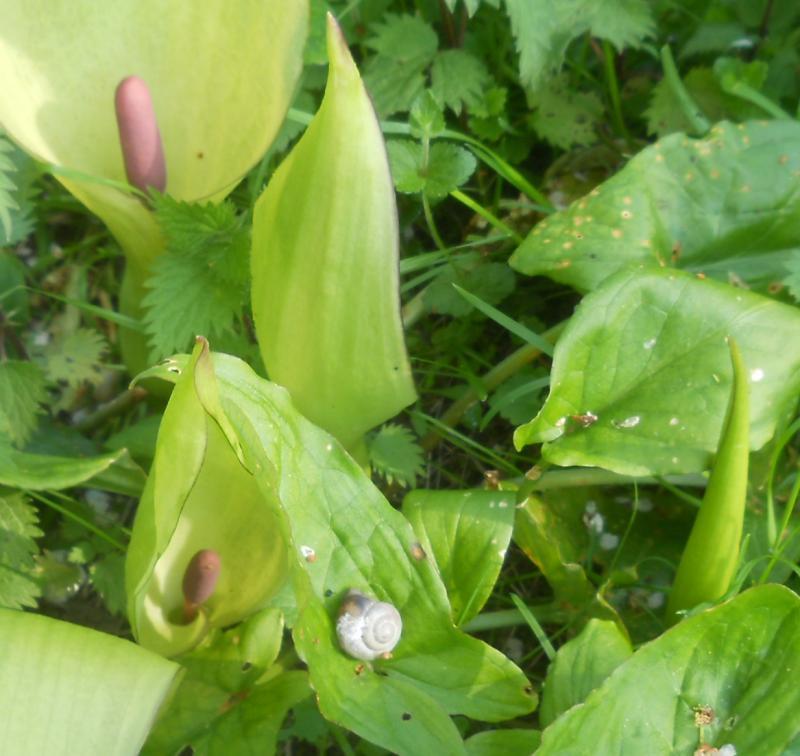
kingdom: Plantae
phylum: Tracheophyta
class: Liliopsida
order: Alismatales
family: Araceae
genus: Arum
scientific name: Arum maculatum
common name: Lords-and-ladies
